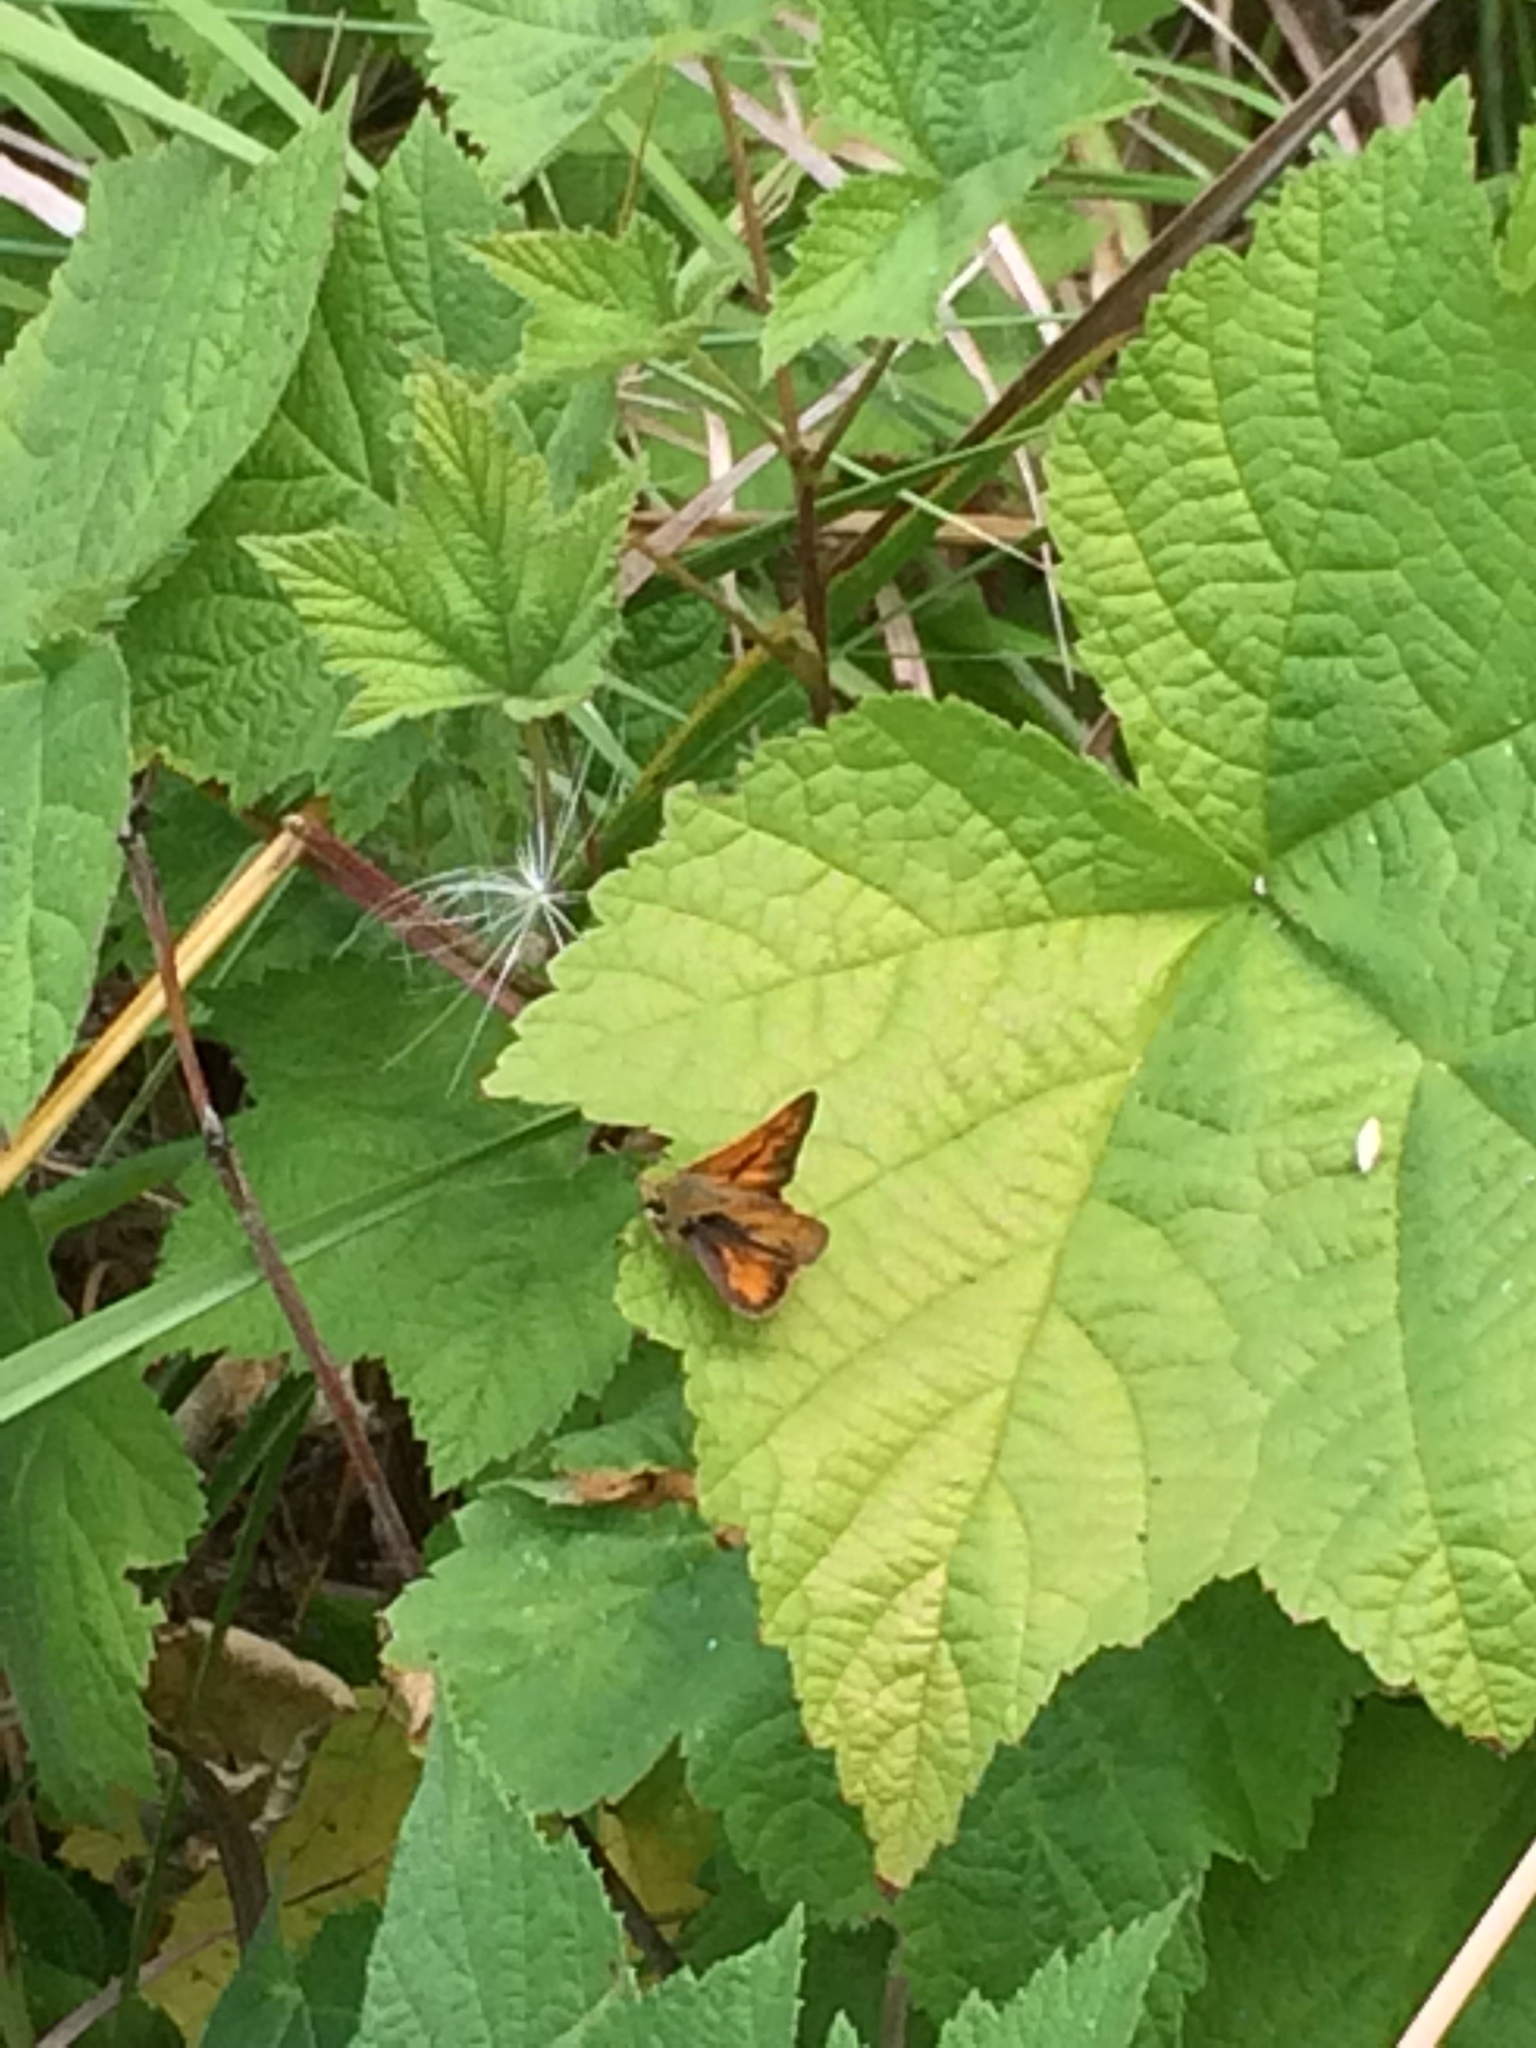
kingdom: Animalia
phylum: Arthropoda
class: Insecta
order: Lepidoptera
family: Hesperiidae
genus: Ochlodes
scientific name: Ochlodes sylvanoides
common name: Woodland skipper
